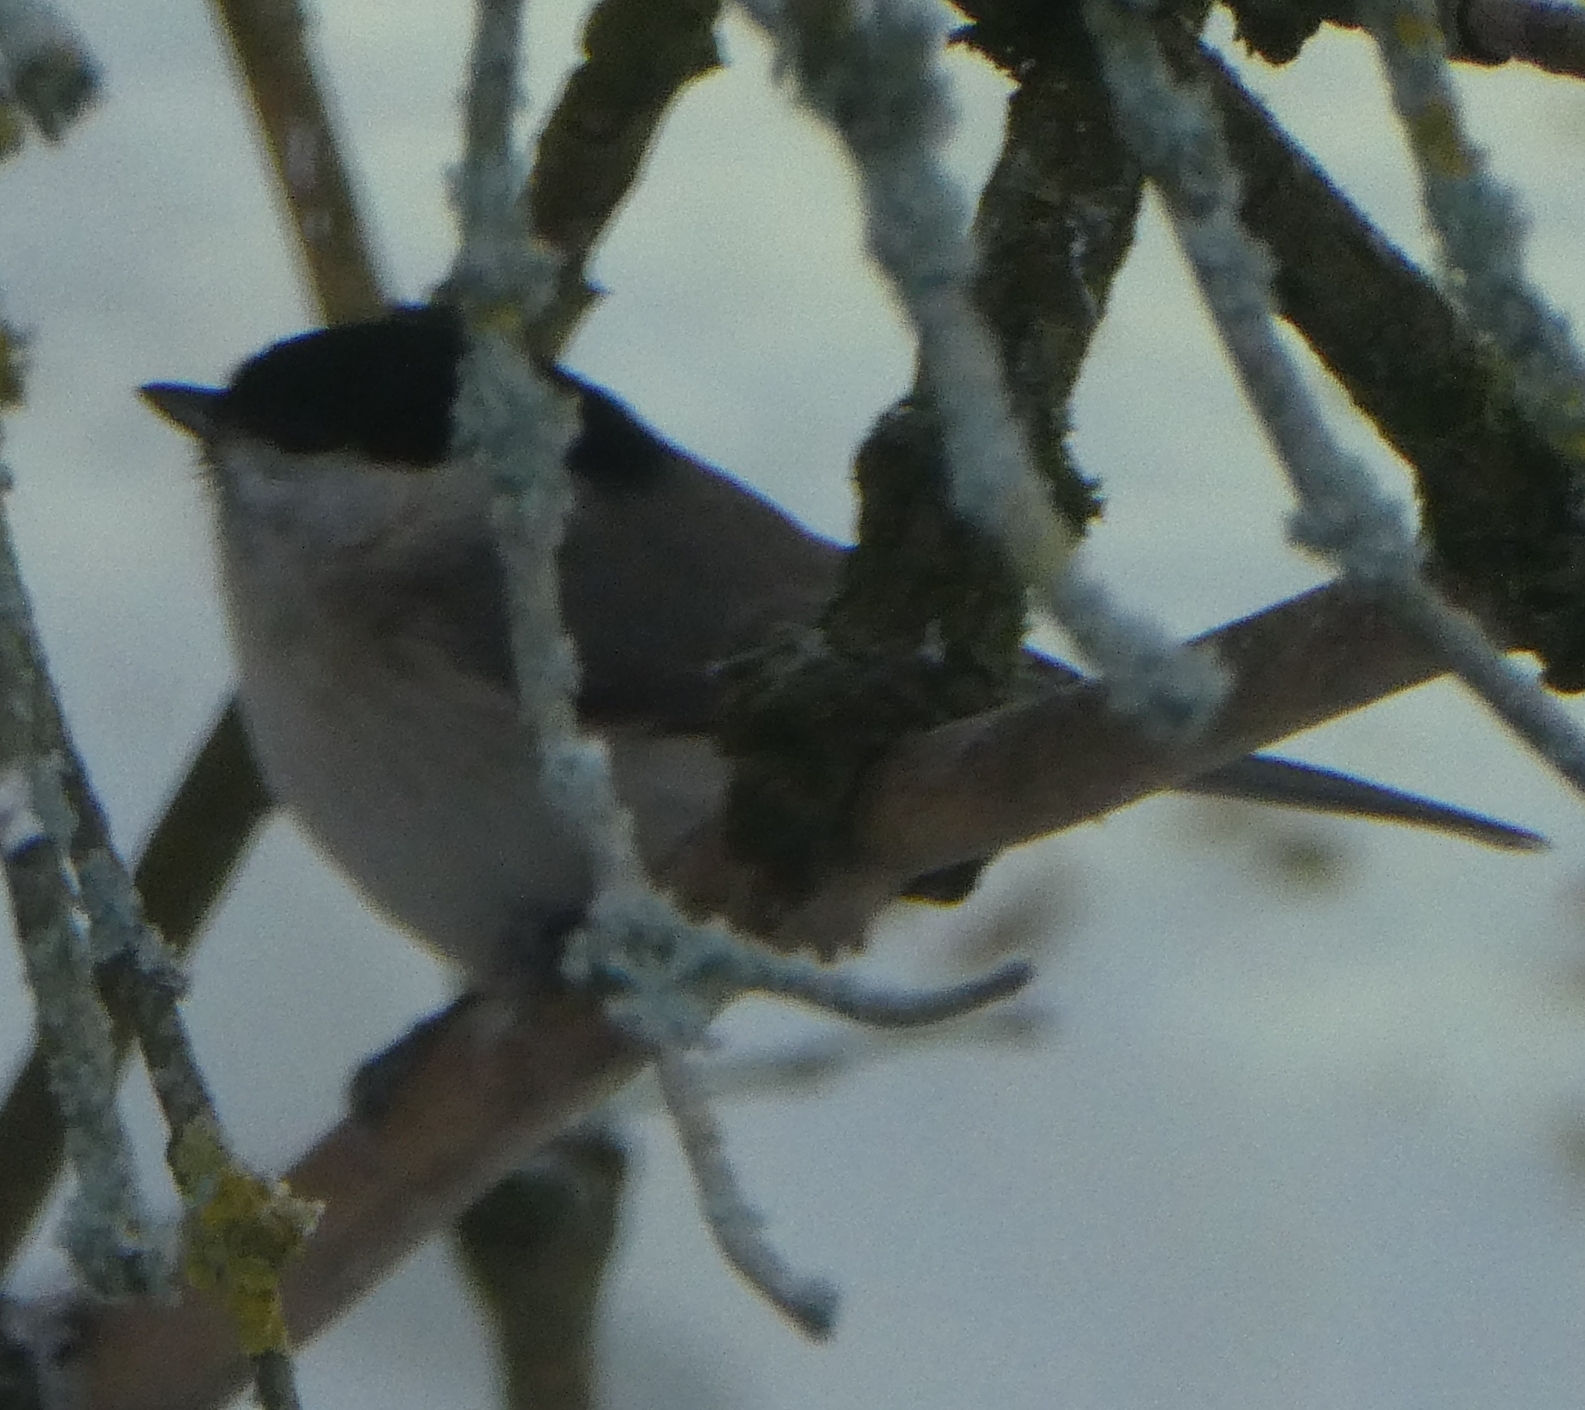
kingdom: Animalia
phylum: Chordata
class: Aves
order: Passeriformes
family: Paridae
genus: Poecile
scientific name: Poecile palustris
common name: Marsh tit
